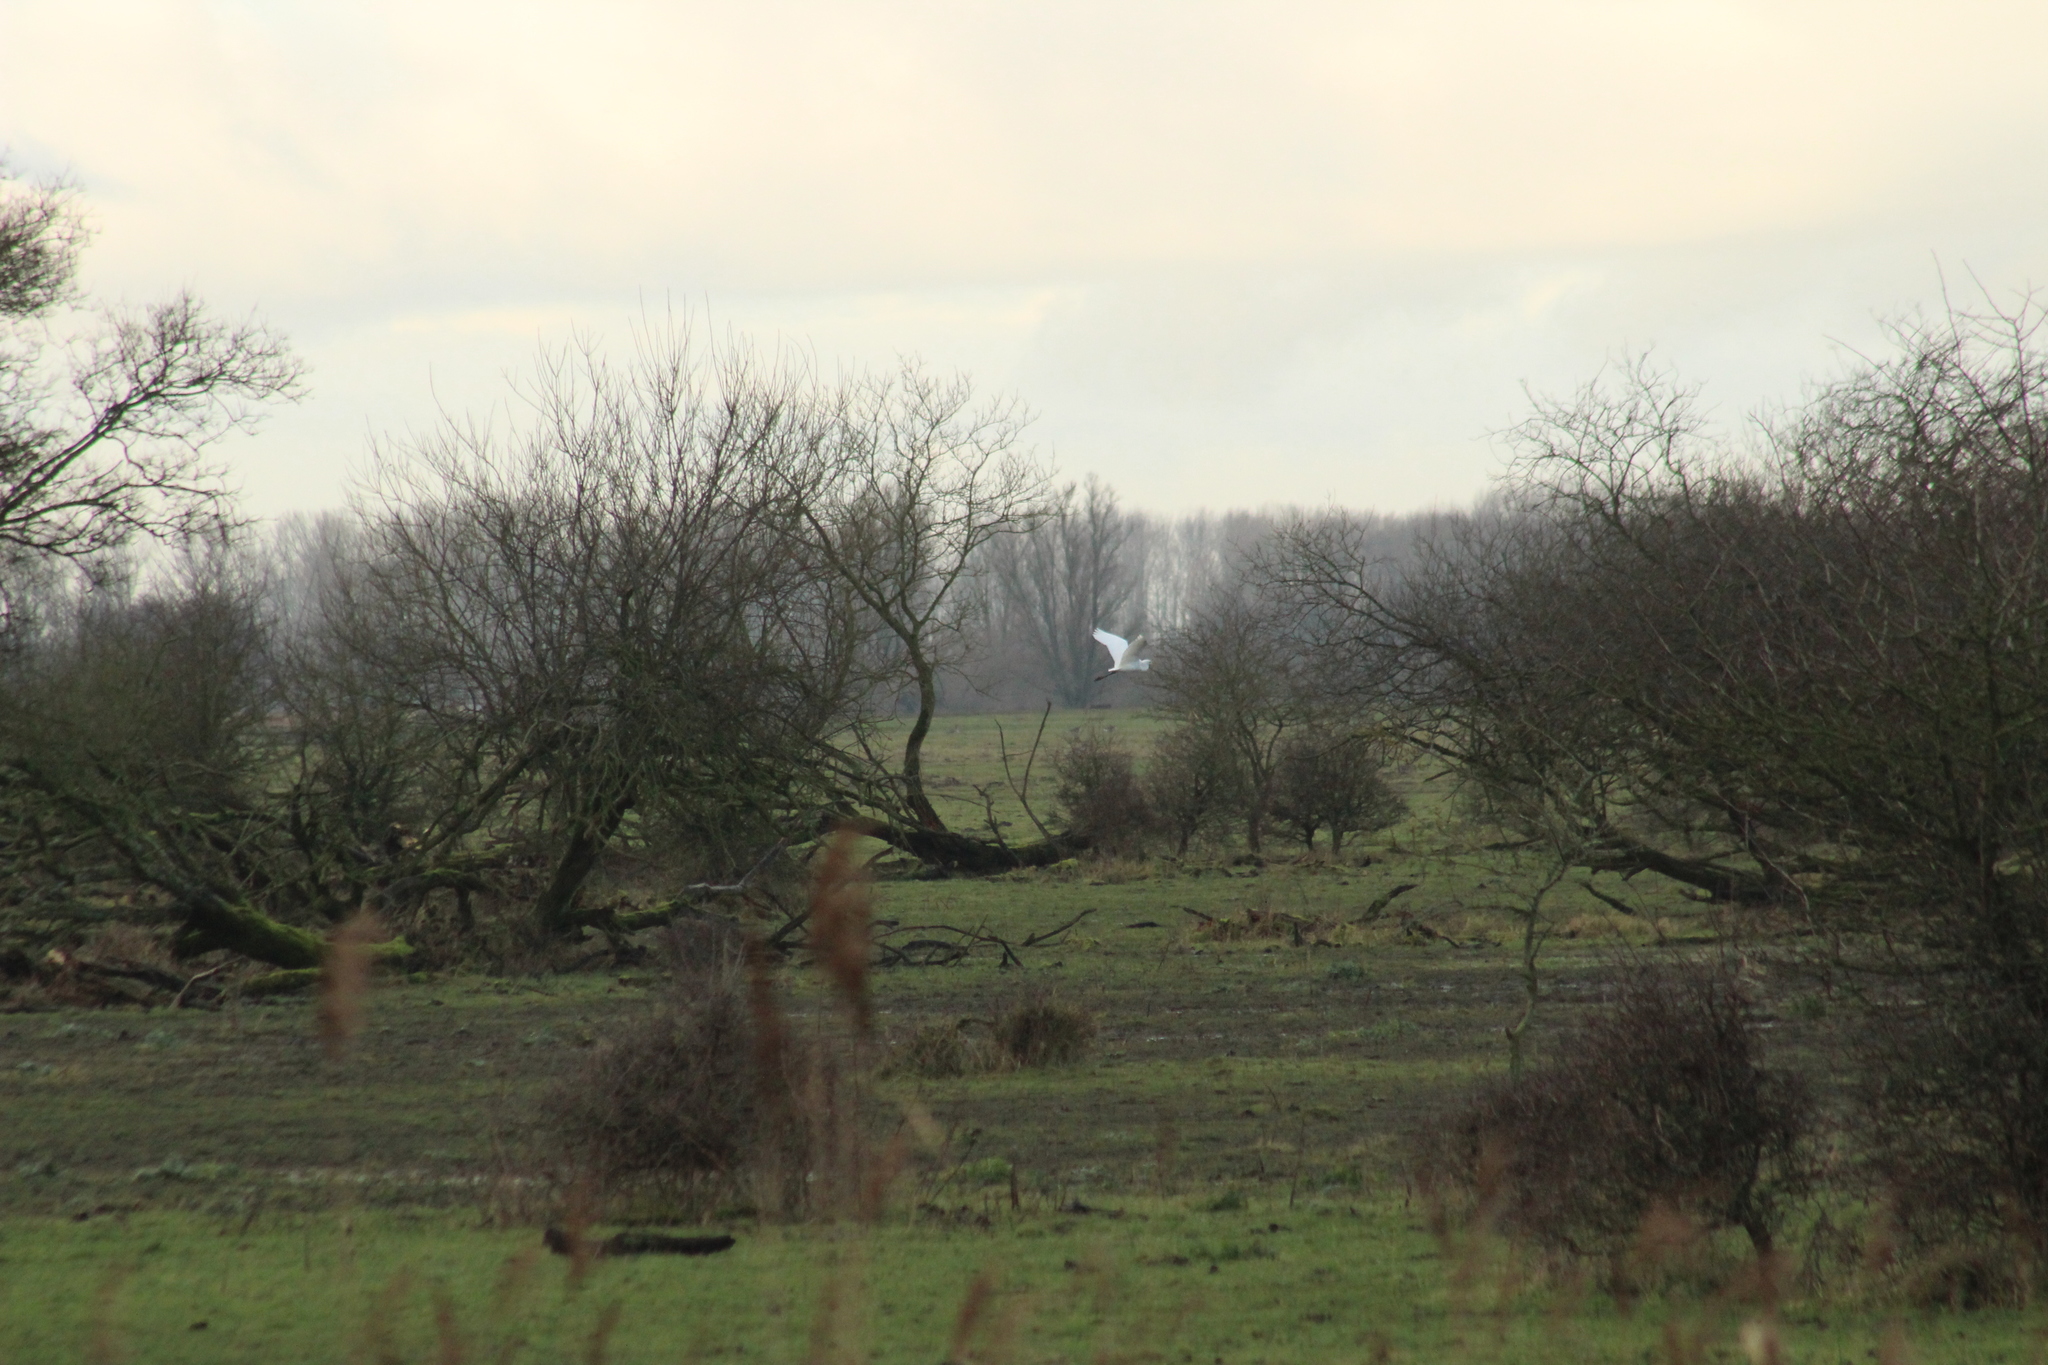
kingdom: Animalia
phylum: Chordata
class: Aves
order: Pelecaniformes
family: Ardeidae
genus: Ardea
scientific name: Ardea alba
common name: Great egret
